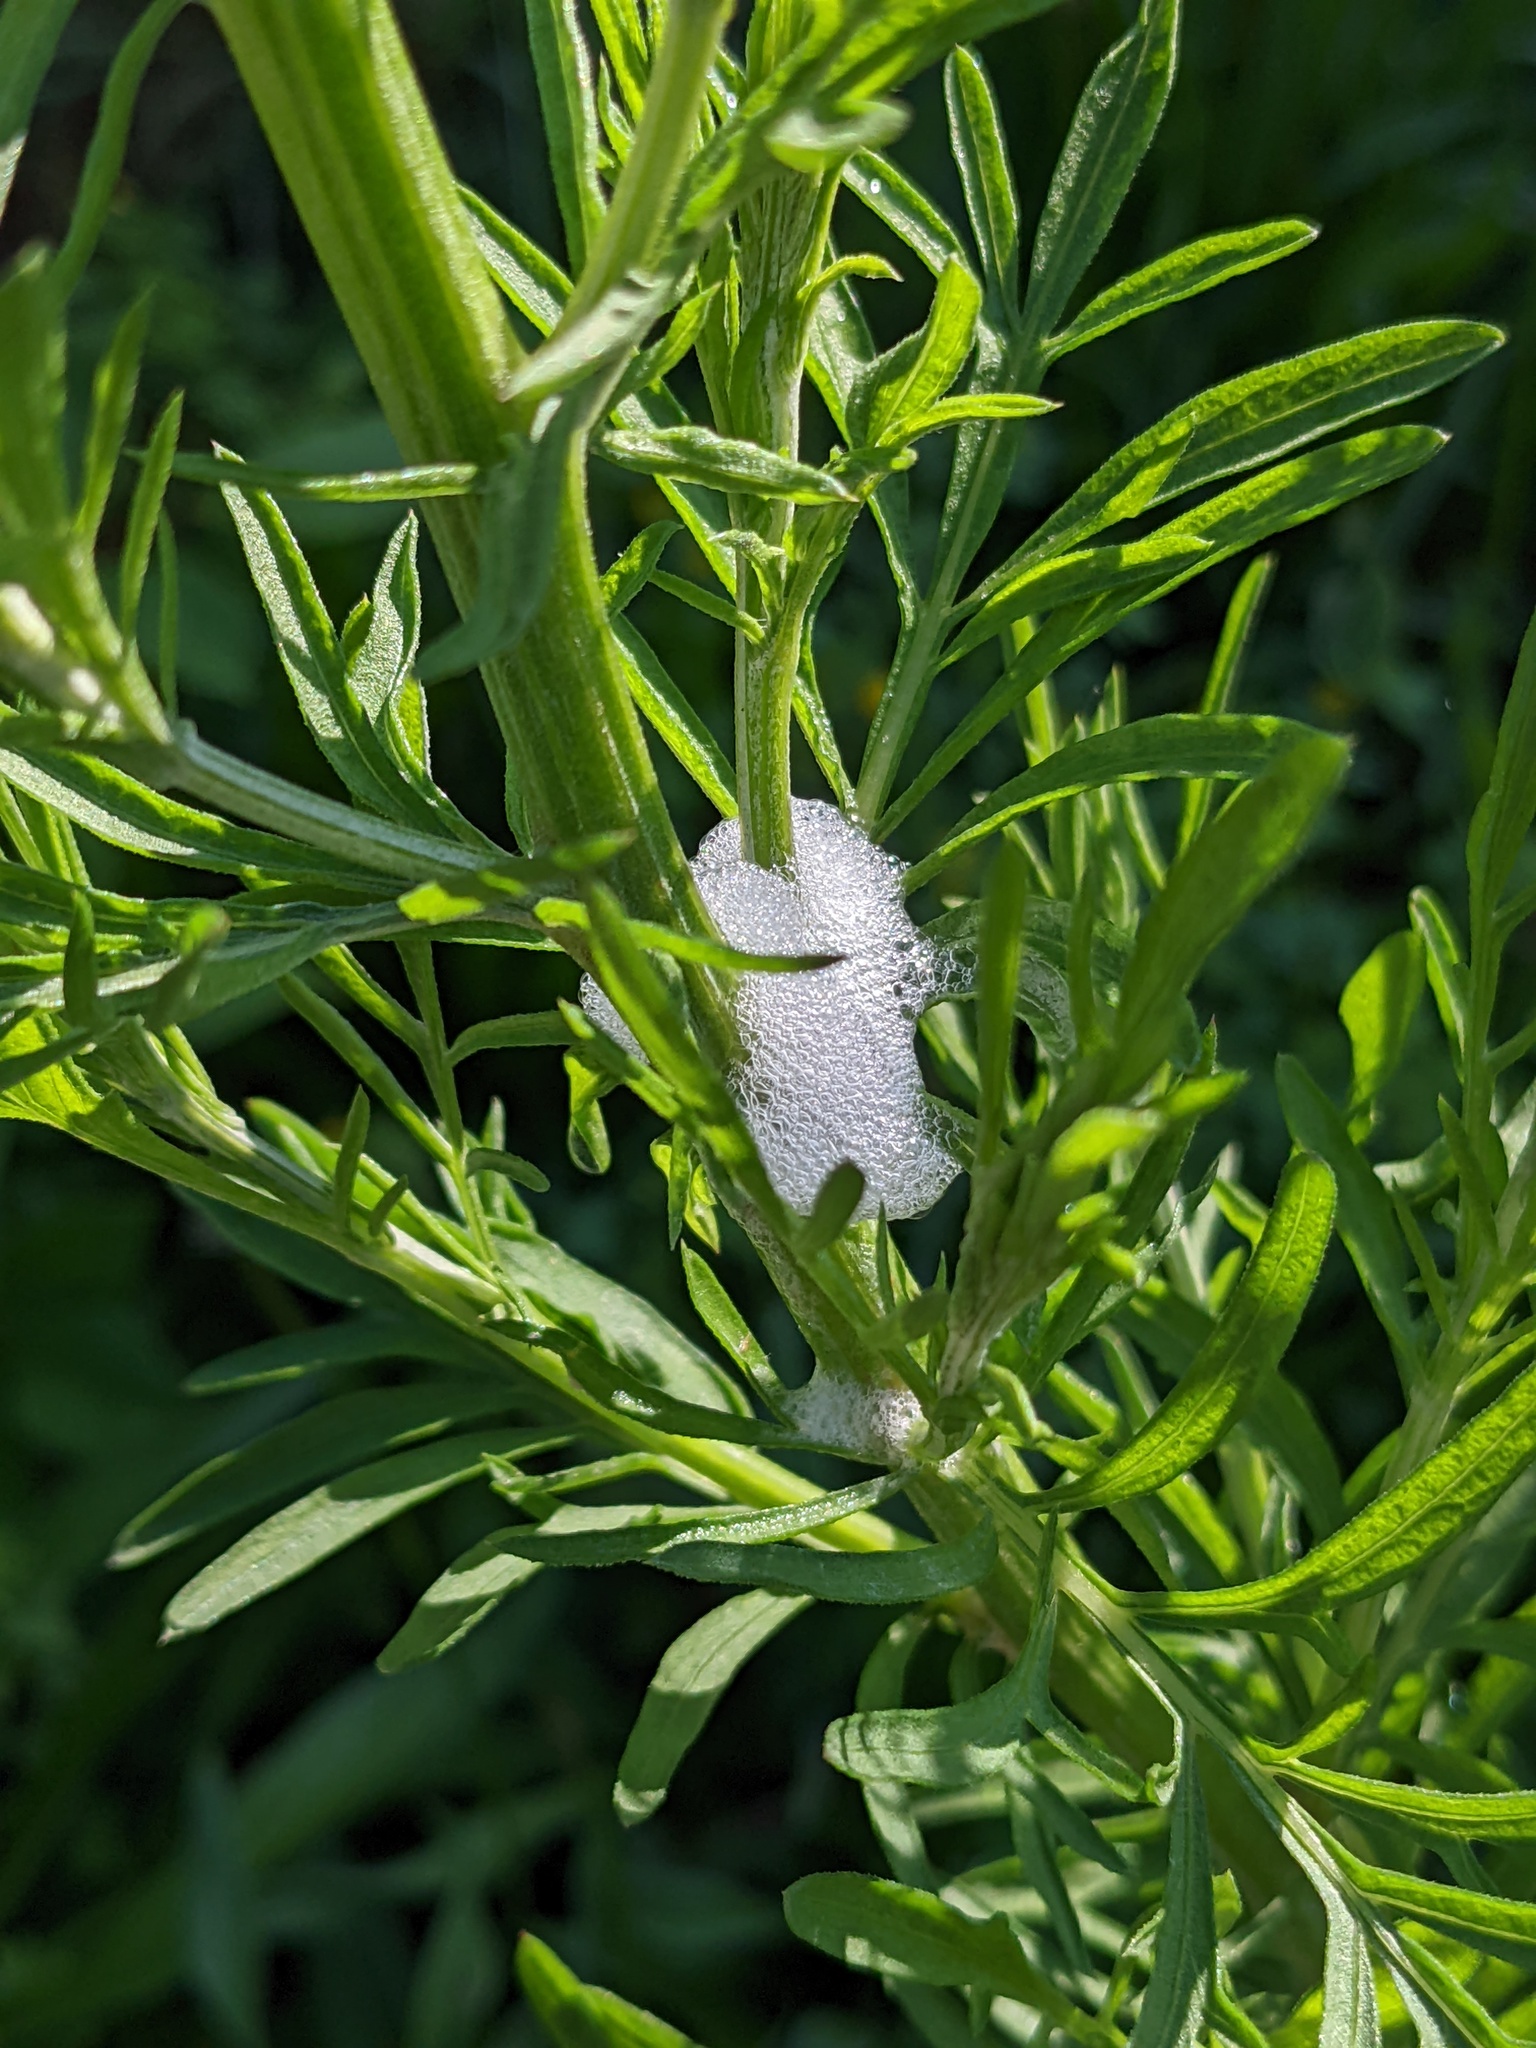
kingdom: Animalia
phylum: Arthropoda
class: Insecta
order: Hemiptera
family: Aphrophoridae
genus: Philaenus
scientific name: Philaenus spumarius
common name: Meadow spittlebug
